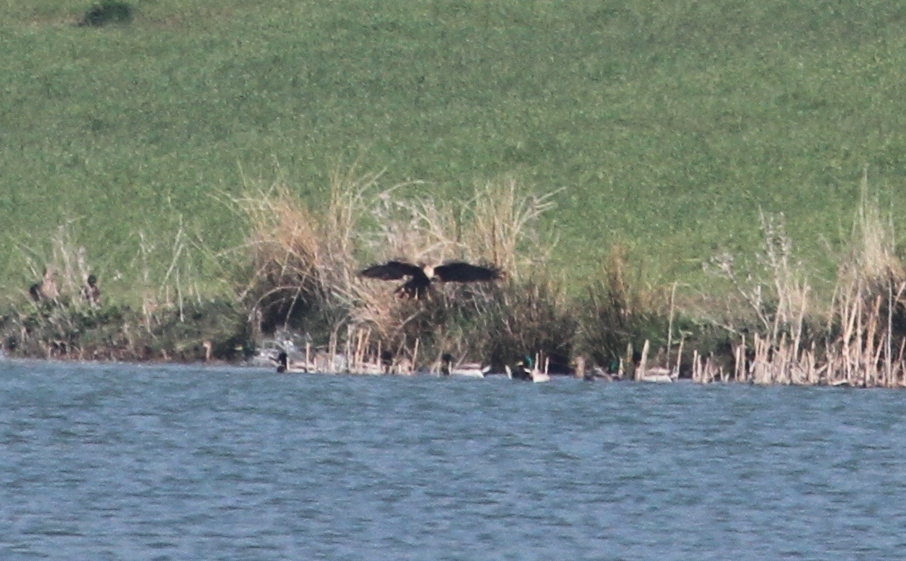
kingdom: Animalia
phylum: Chordata
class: Aves
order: Accipitriformes
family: Accipitridae
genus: Circus
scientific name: Circus aeruginosus
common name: Western marsh harrier
